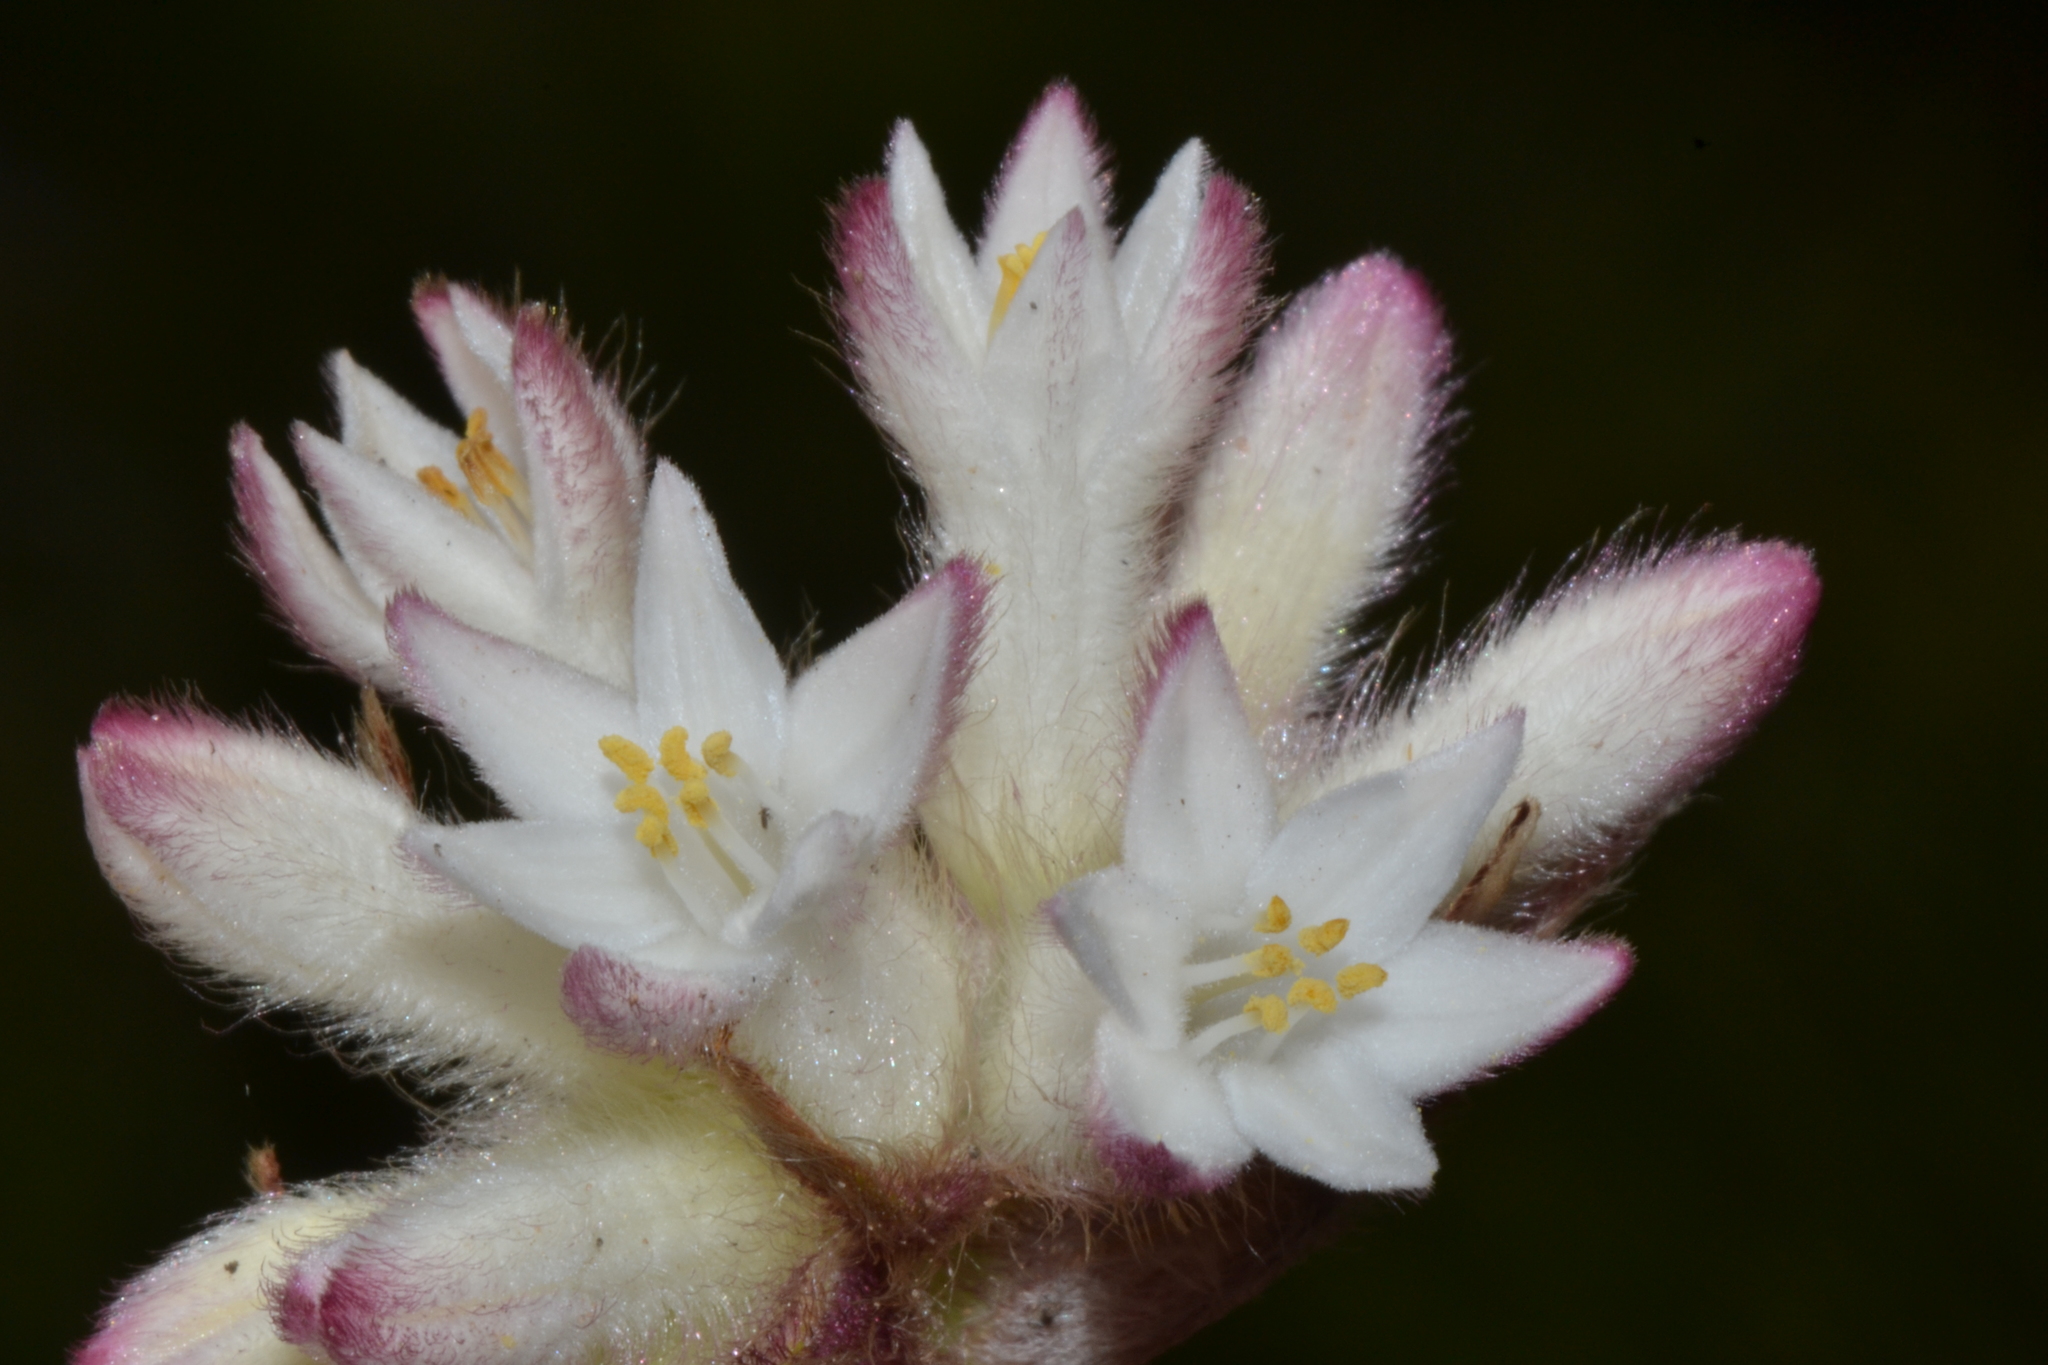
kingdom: Plantae
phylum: Tracheophyta
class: Liliopsida
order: Commelinales
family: Haemodoraceae
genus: Conostylis
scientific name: Conostylis setosa
